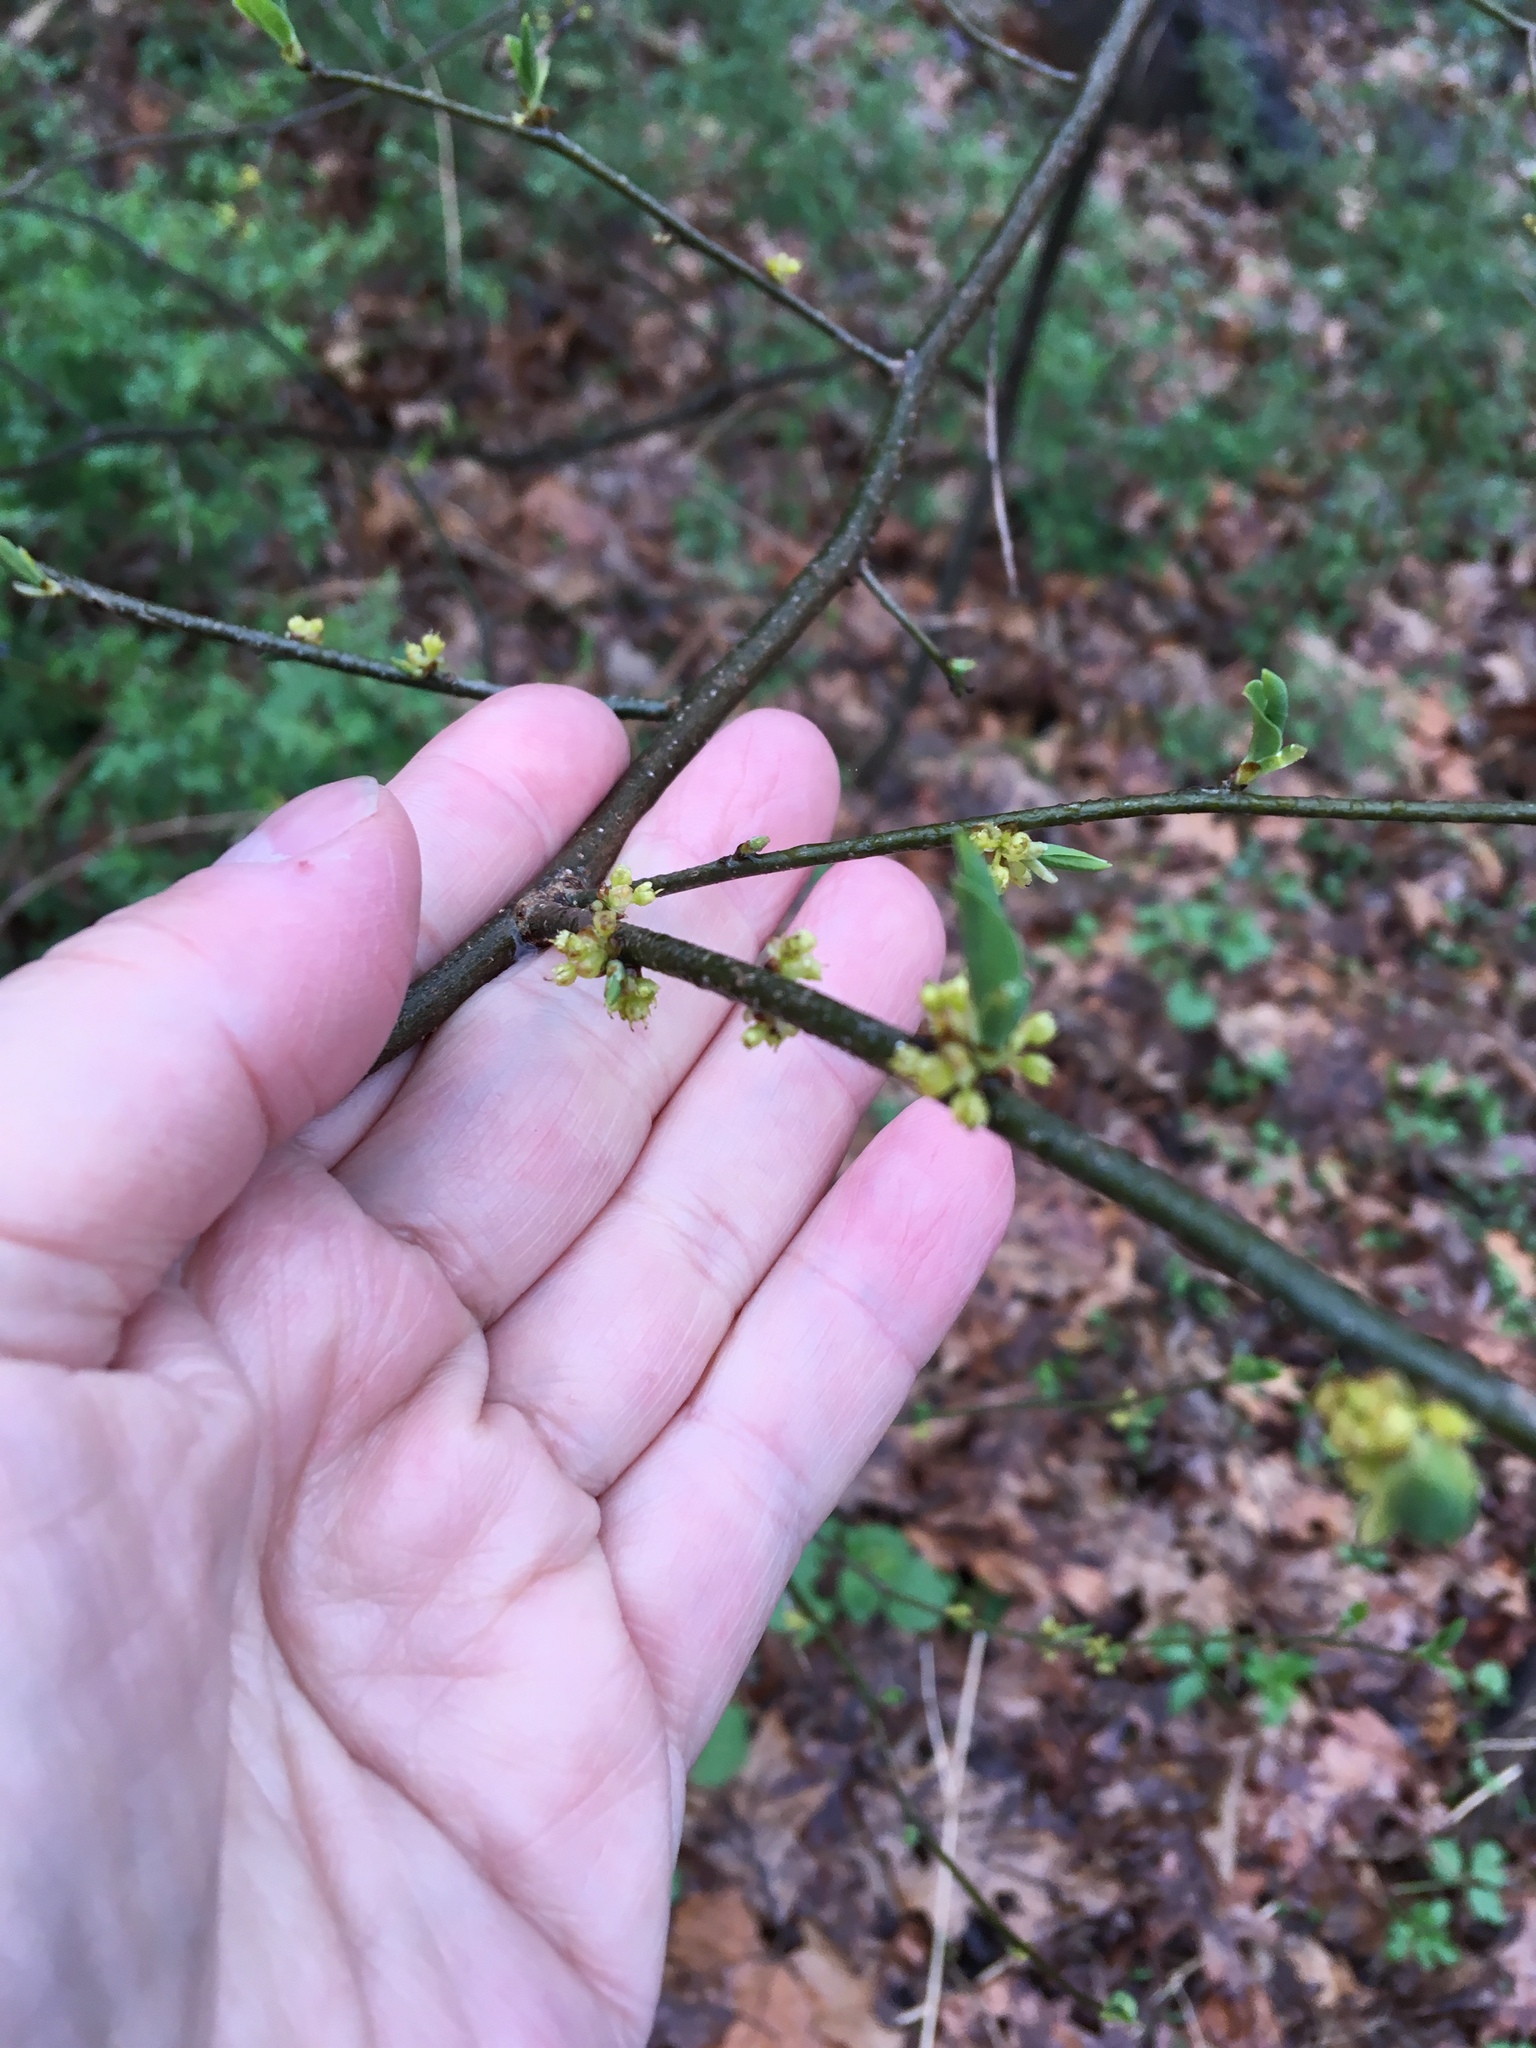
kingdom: Plantae
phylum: Tracheophyta
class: Magnoliopsida
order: Laurales
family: Lauraceae
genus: Lindera
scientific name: Lindera benzoin
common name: Spicebush
